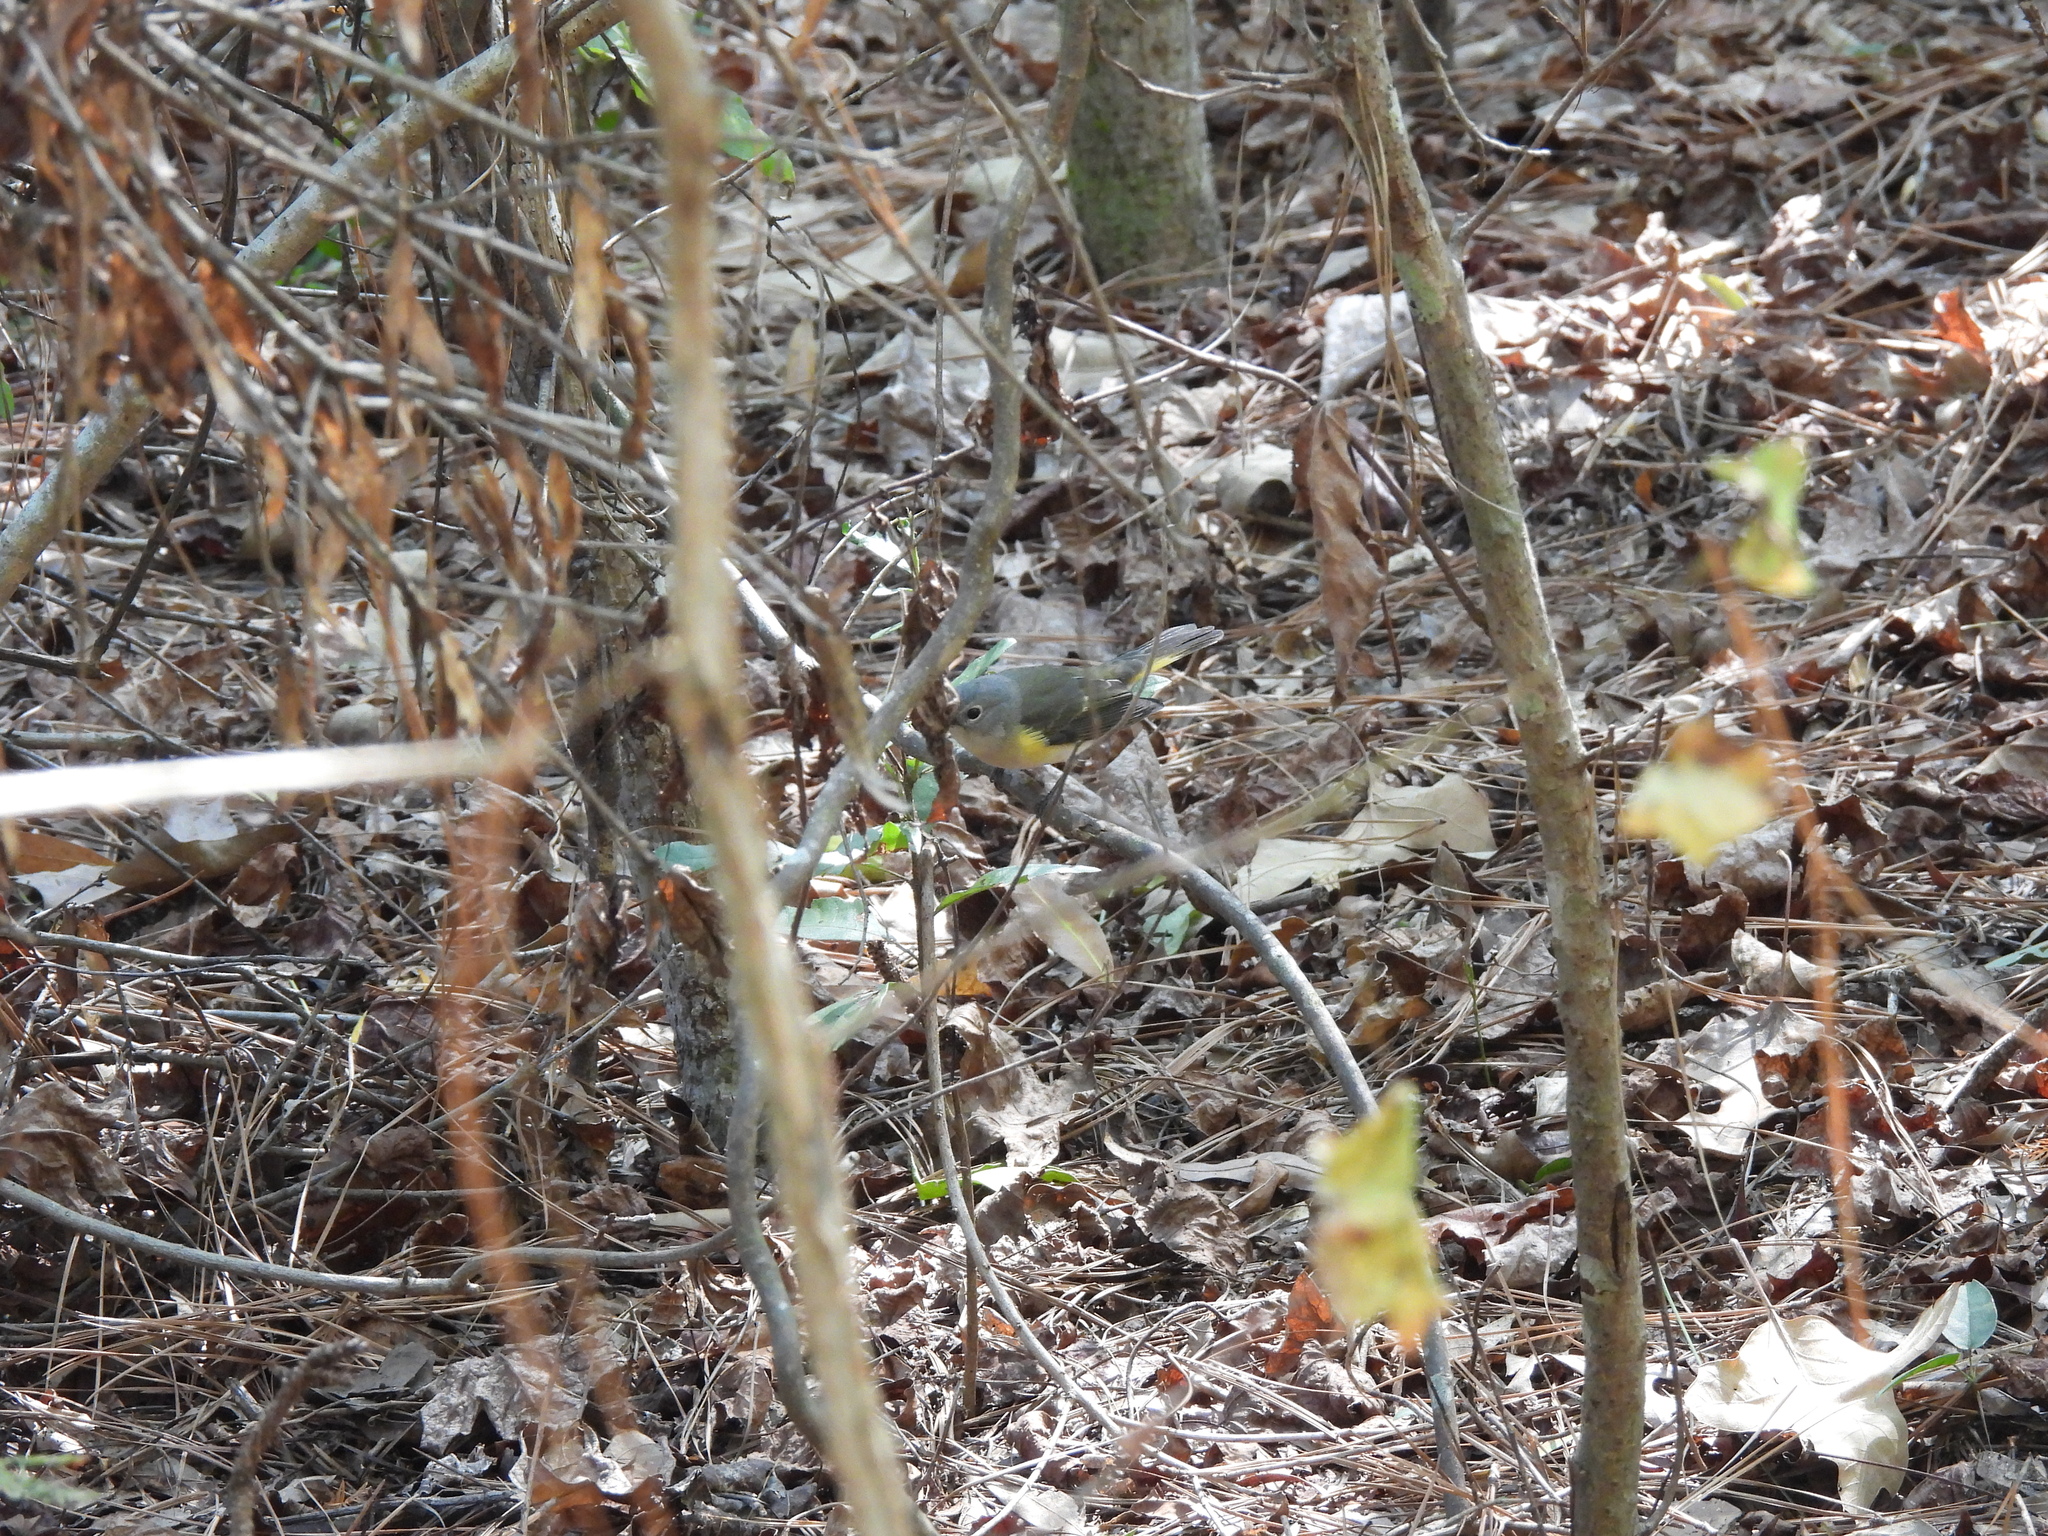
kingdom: Animalia
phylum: Chordata
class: Aves
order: Passeriformes
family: Parulidae
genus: Setophaga
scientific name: Setophaga ruticilla
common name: American redstart
